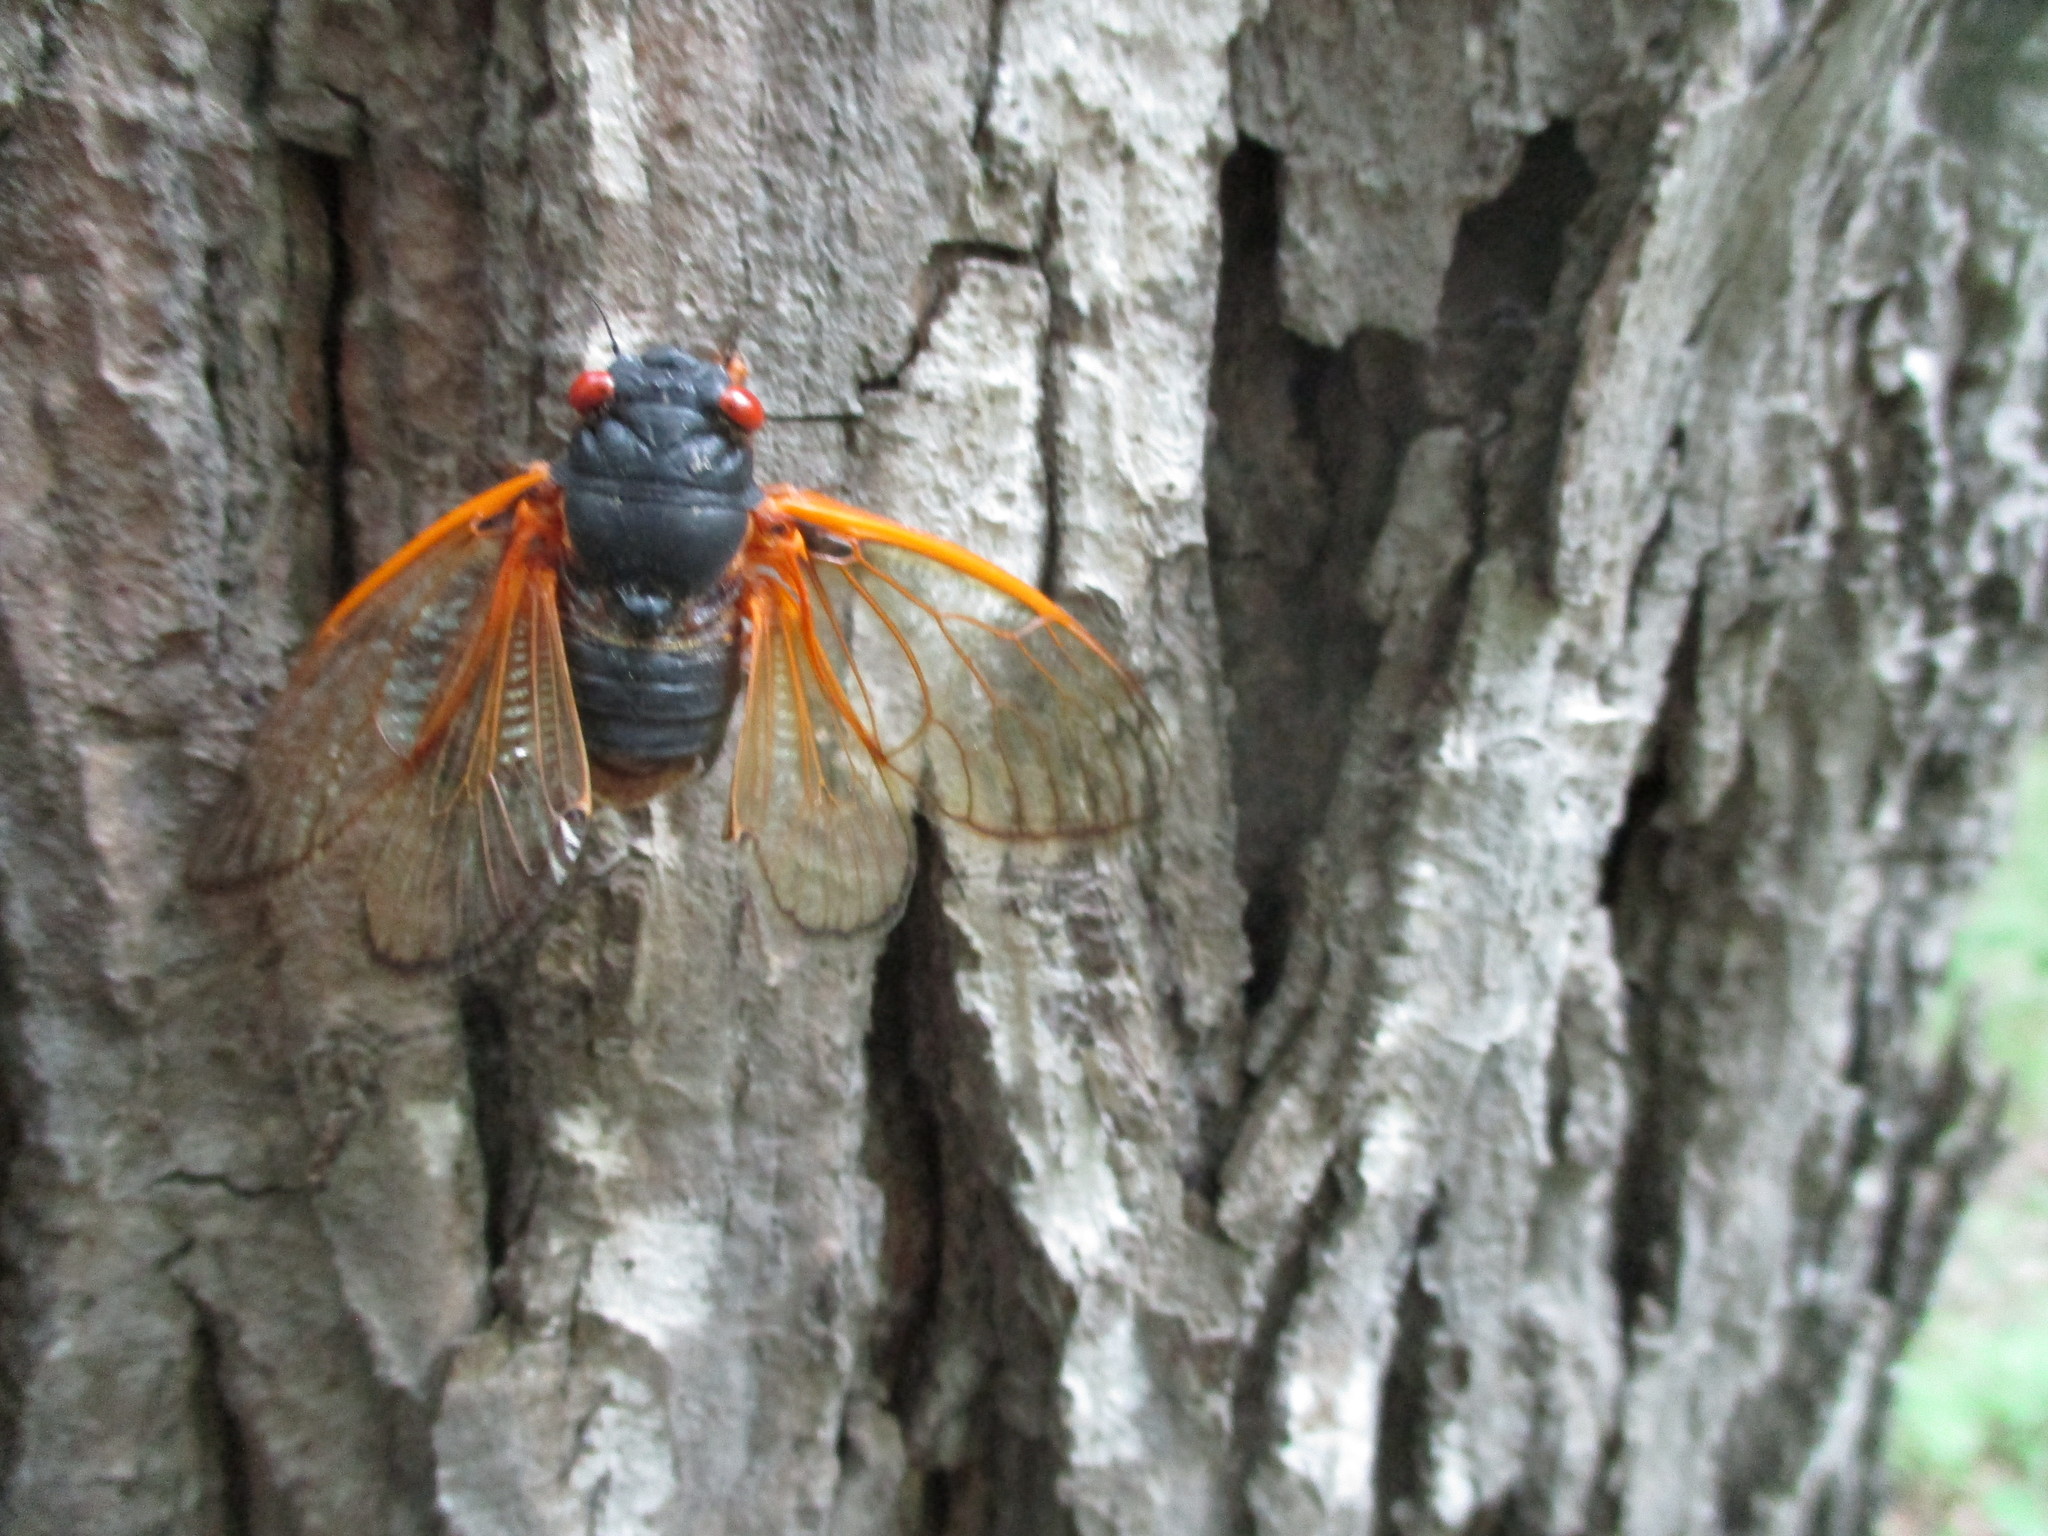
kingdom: Animalia
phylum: Arthropoda
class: Insecta
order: Hemiptera
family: Cicadidae
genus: Magicicada
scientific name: Magicicada septendecim
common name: Periodical cicada
